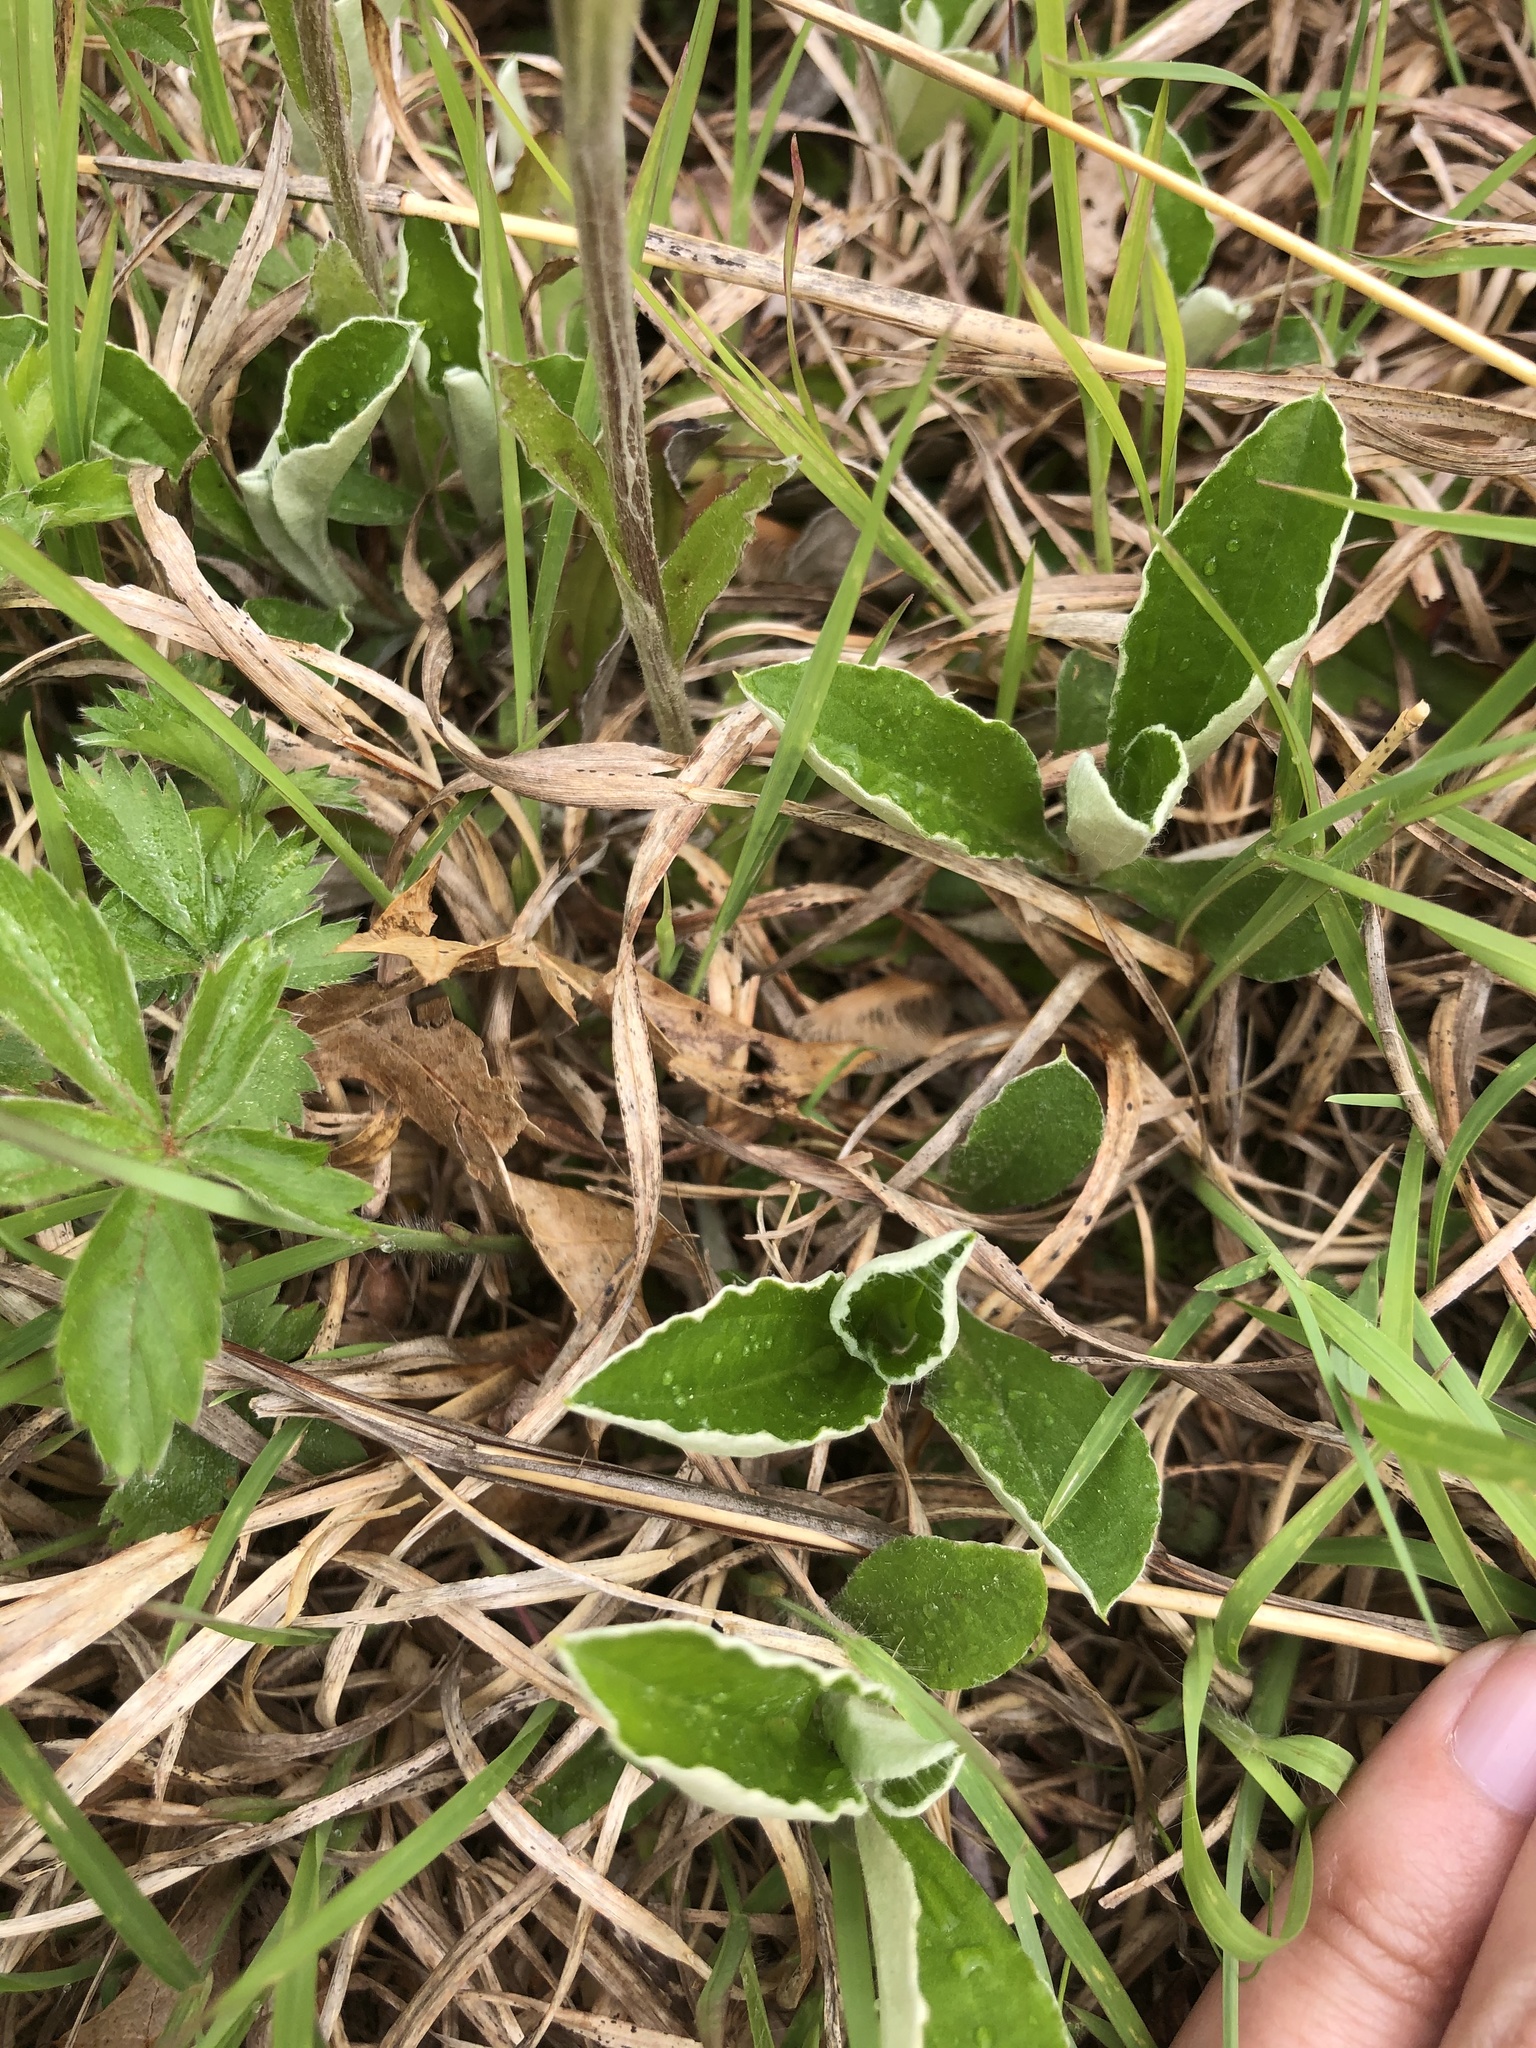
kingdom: Plantae
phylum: Tracheophyta
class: Magnoliopsida
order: Asterales
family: Asteraceae
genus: Antennaria
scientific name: Antennaria parlinii
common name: Parlin's pussytoes
